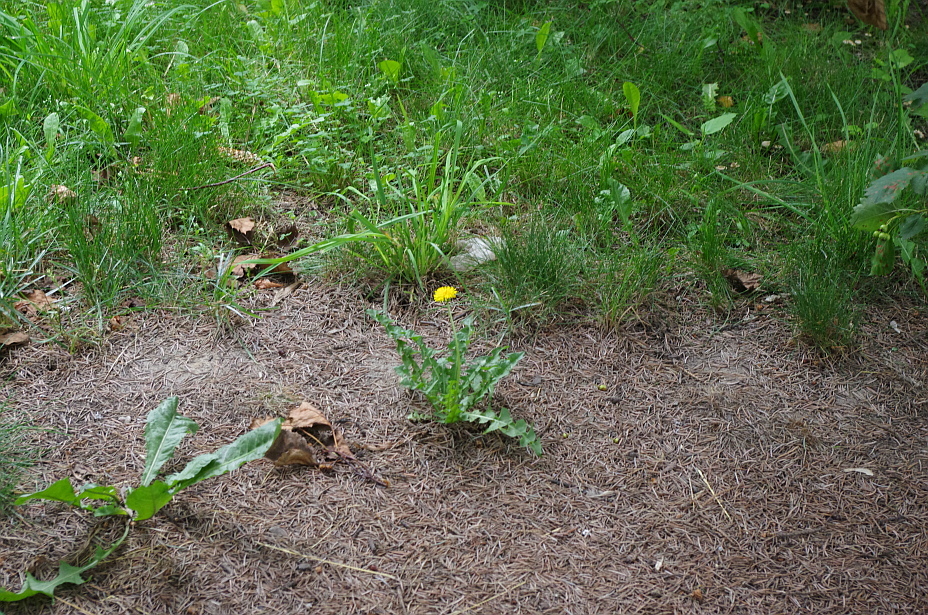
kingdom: Plantae
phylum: Tracheophyta
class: Magnoliopsida
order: Asterales
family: Asteraceae
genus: Taraxacum
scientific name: Taraxacum officinale
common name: Common dandelion
